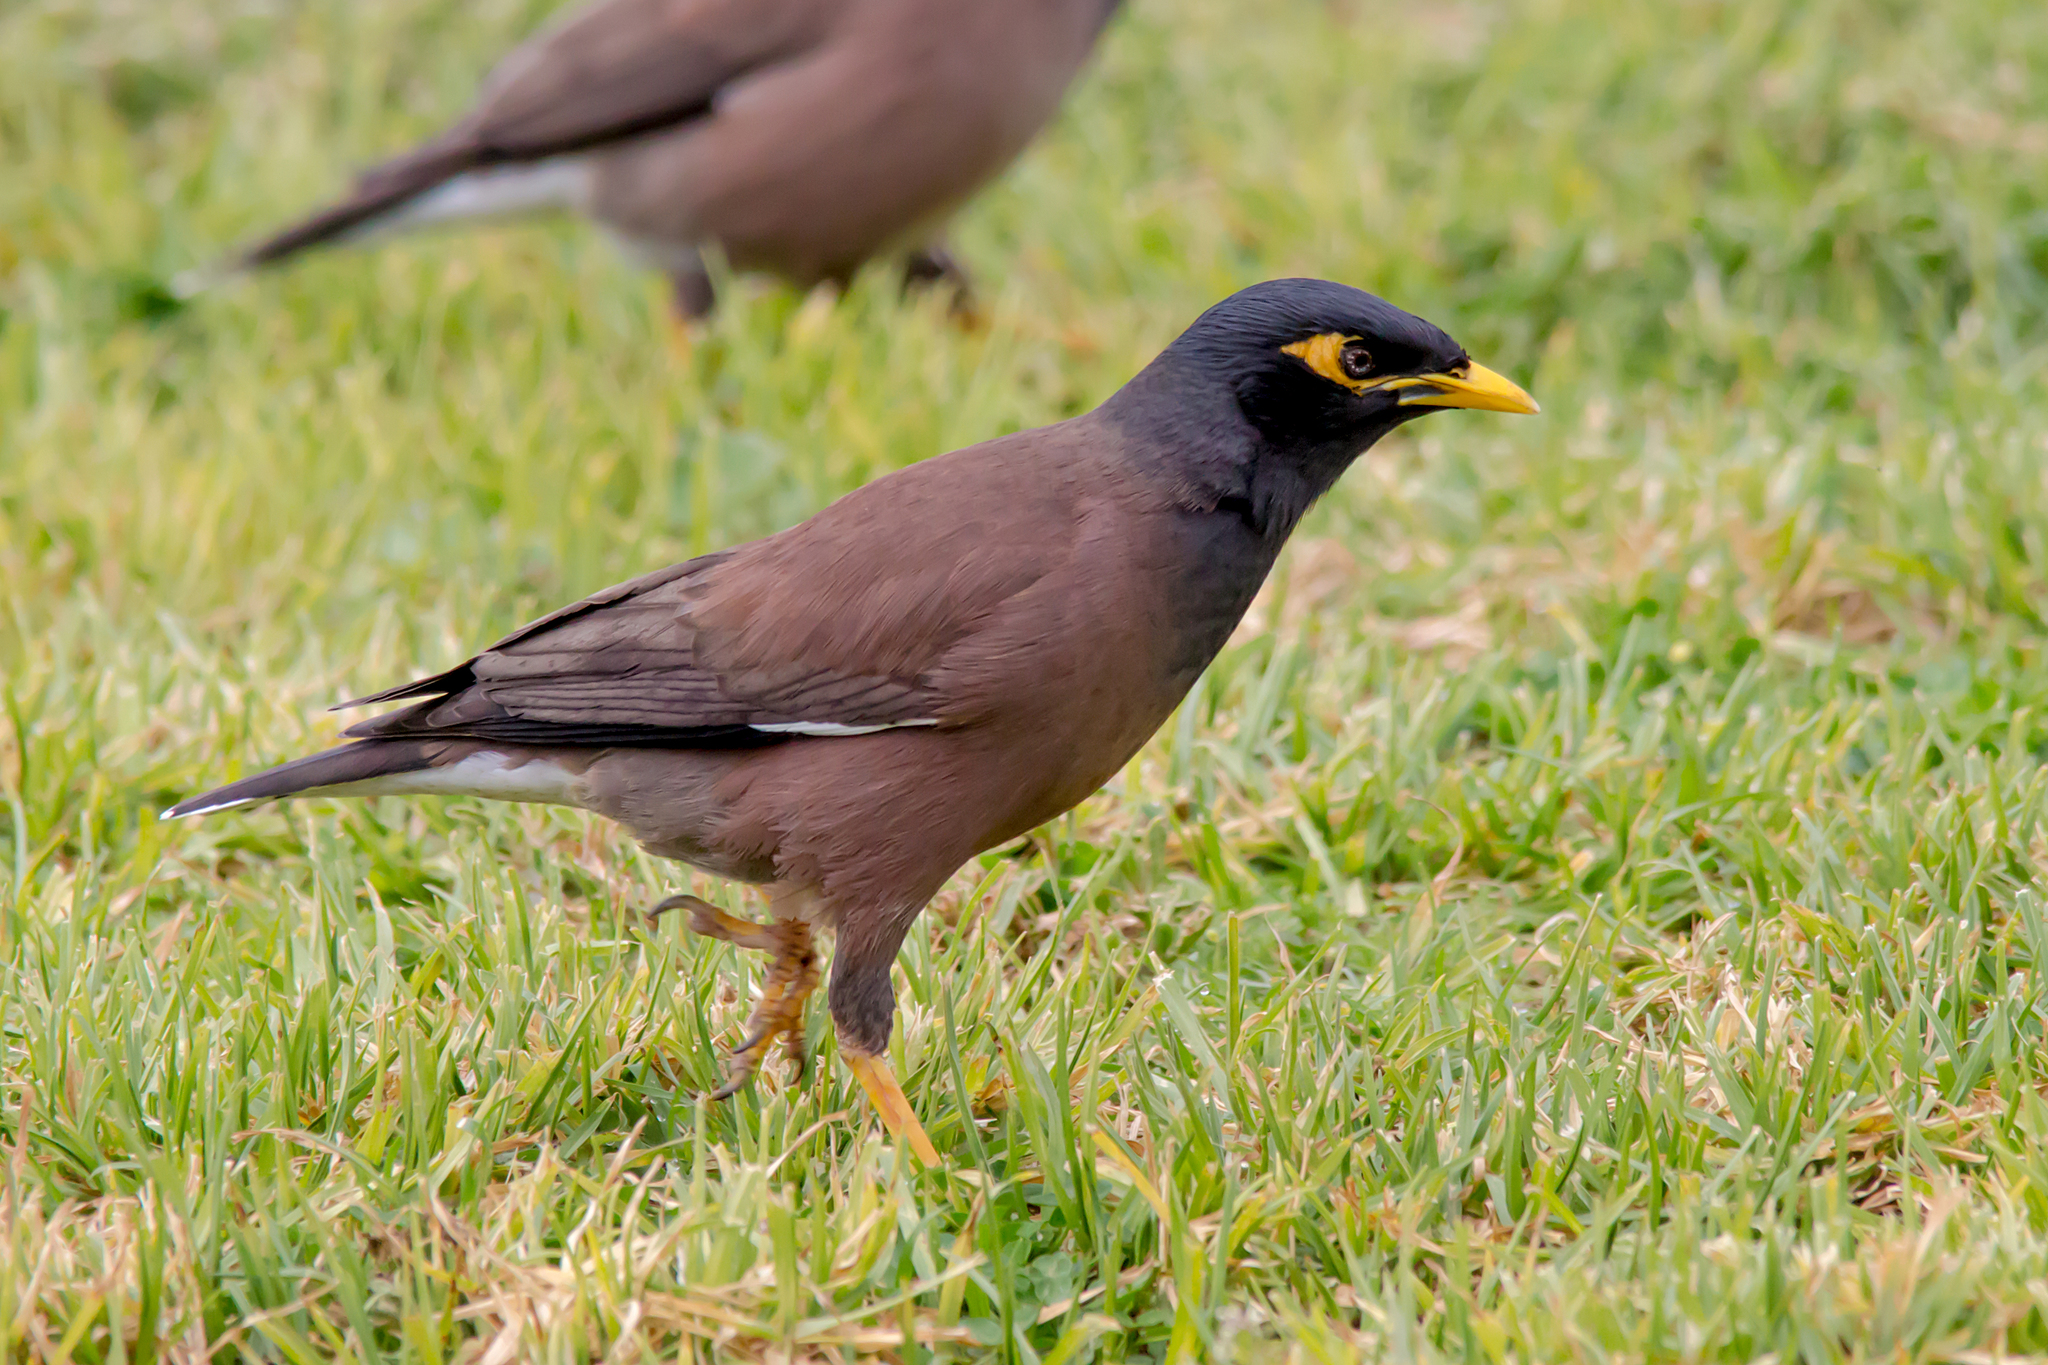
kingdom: Animalia
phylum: Chordata
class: Aves
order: Passeriformes
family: Sturnidae
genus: Acridotheres
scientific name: Acridotheres tristis
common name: Common myna
